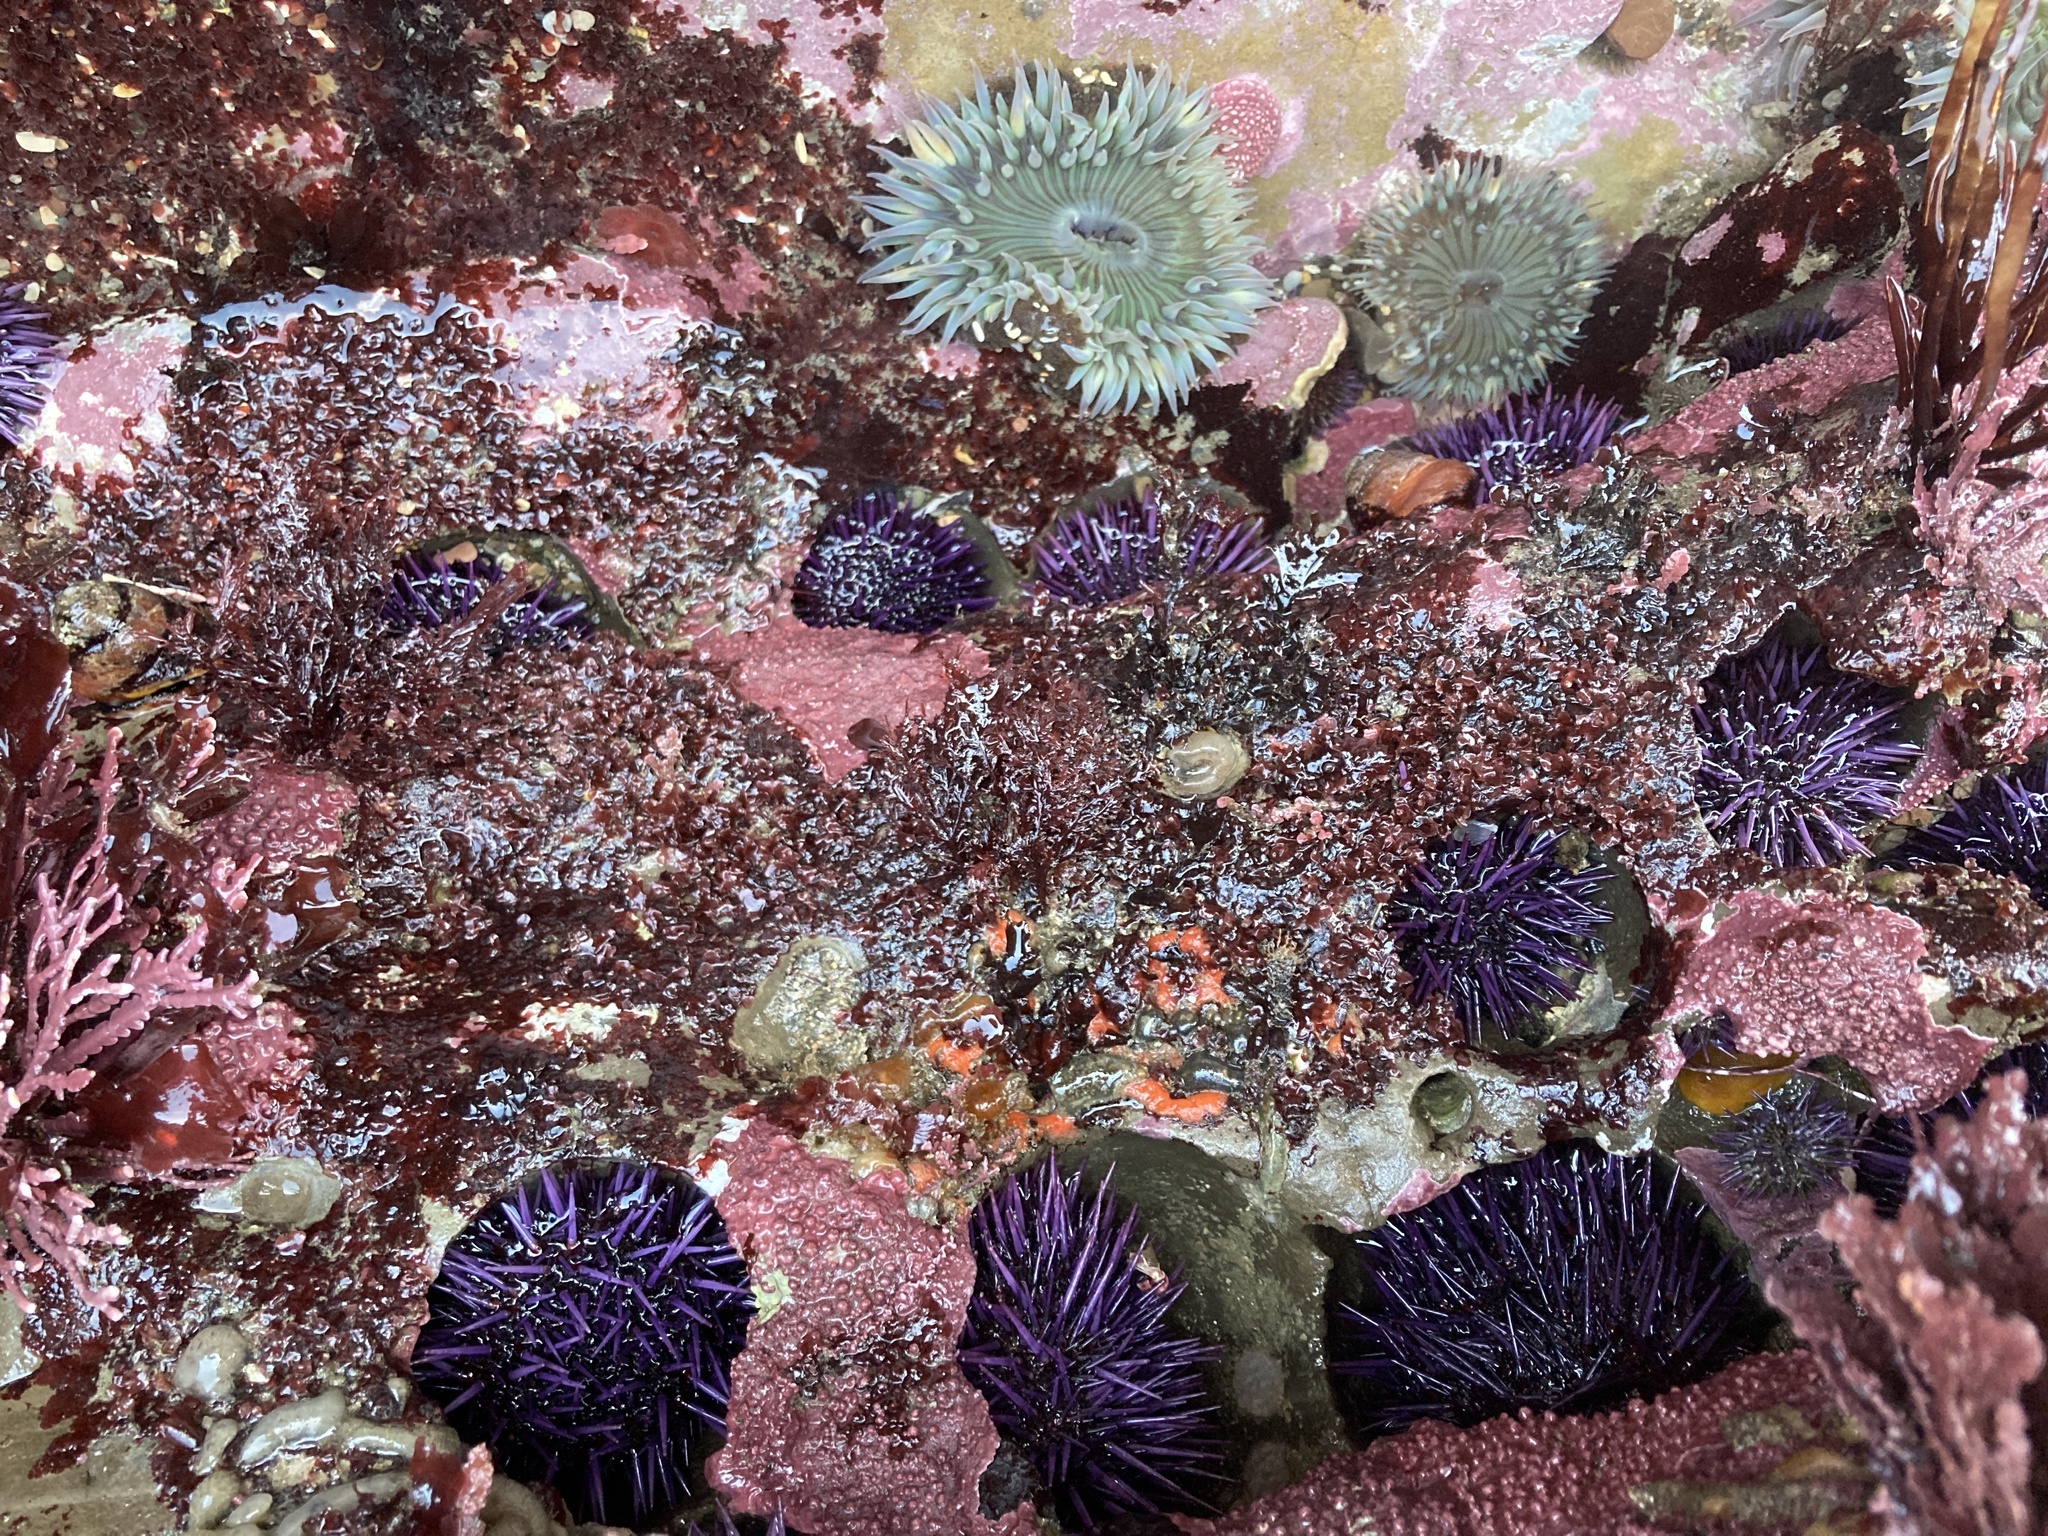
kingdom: Animalia
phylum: Echinodermata
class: Echinoidea
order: Camarodonta
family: Strongylocentrotidae
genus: Strongylocentrotus
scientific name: Strongylocentrotus purpuratus
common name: Purple sea urchin
